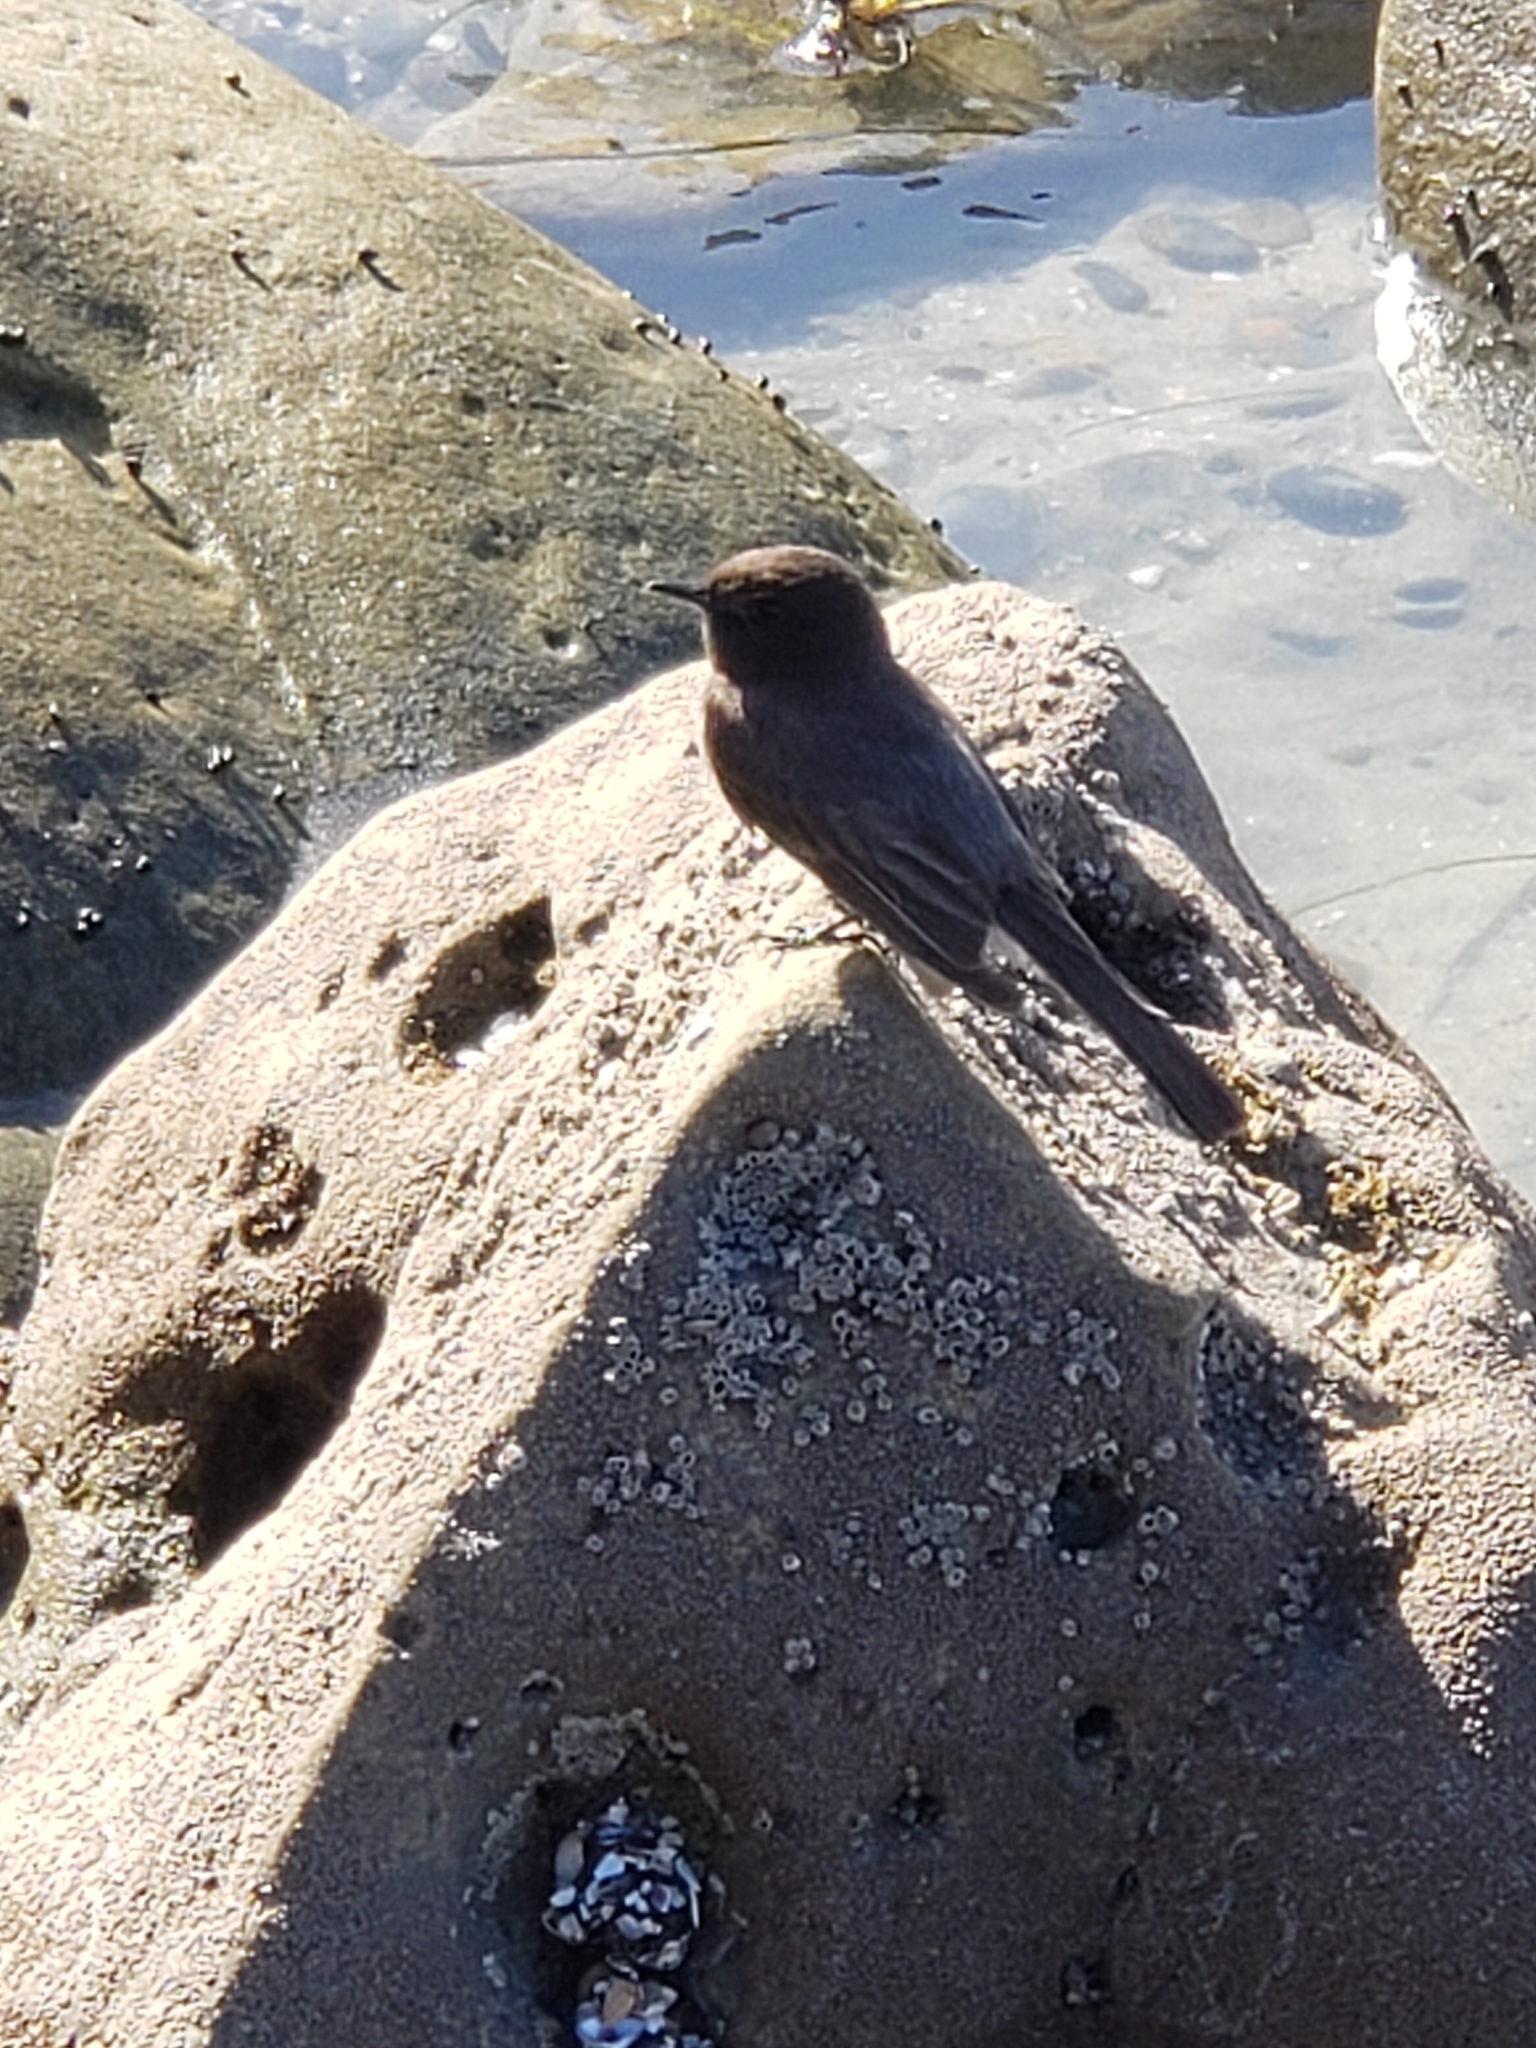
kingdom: Animalia
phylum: Chordata
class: Aves
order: Passeriformes
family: Tyrannidae
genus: Sayornis
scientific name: Sayornis nigricans
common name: Black phoebe
